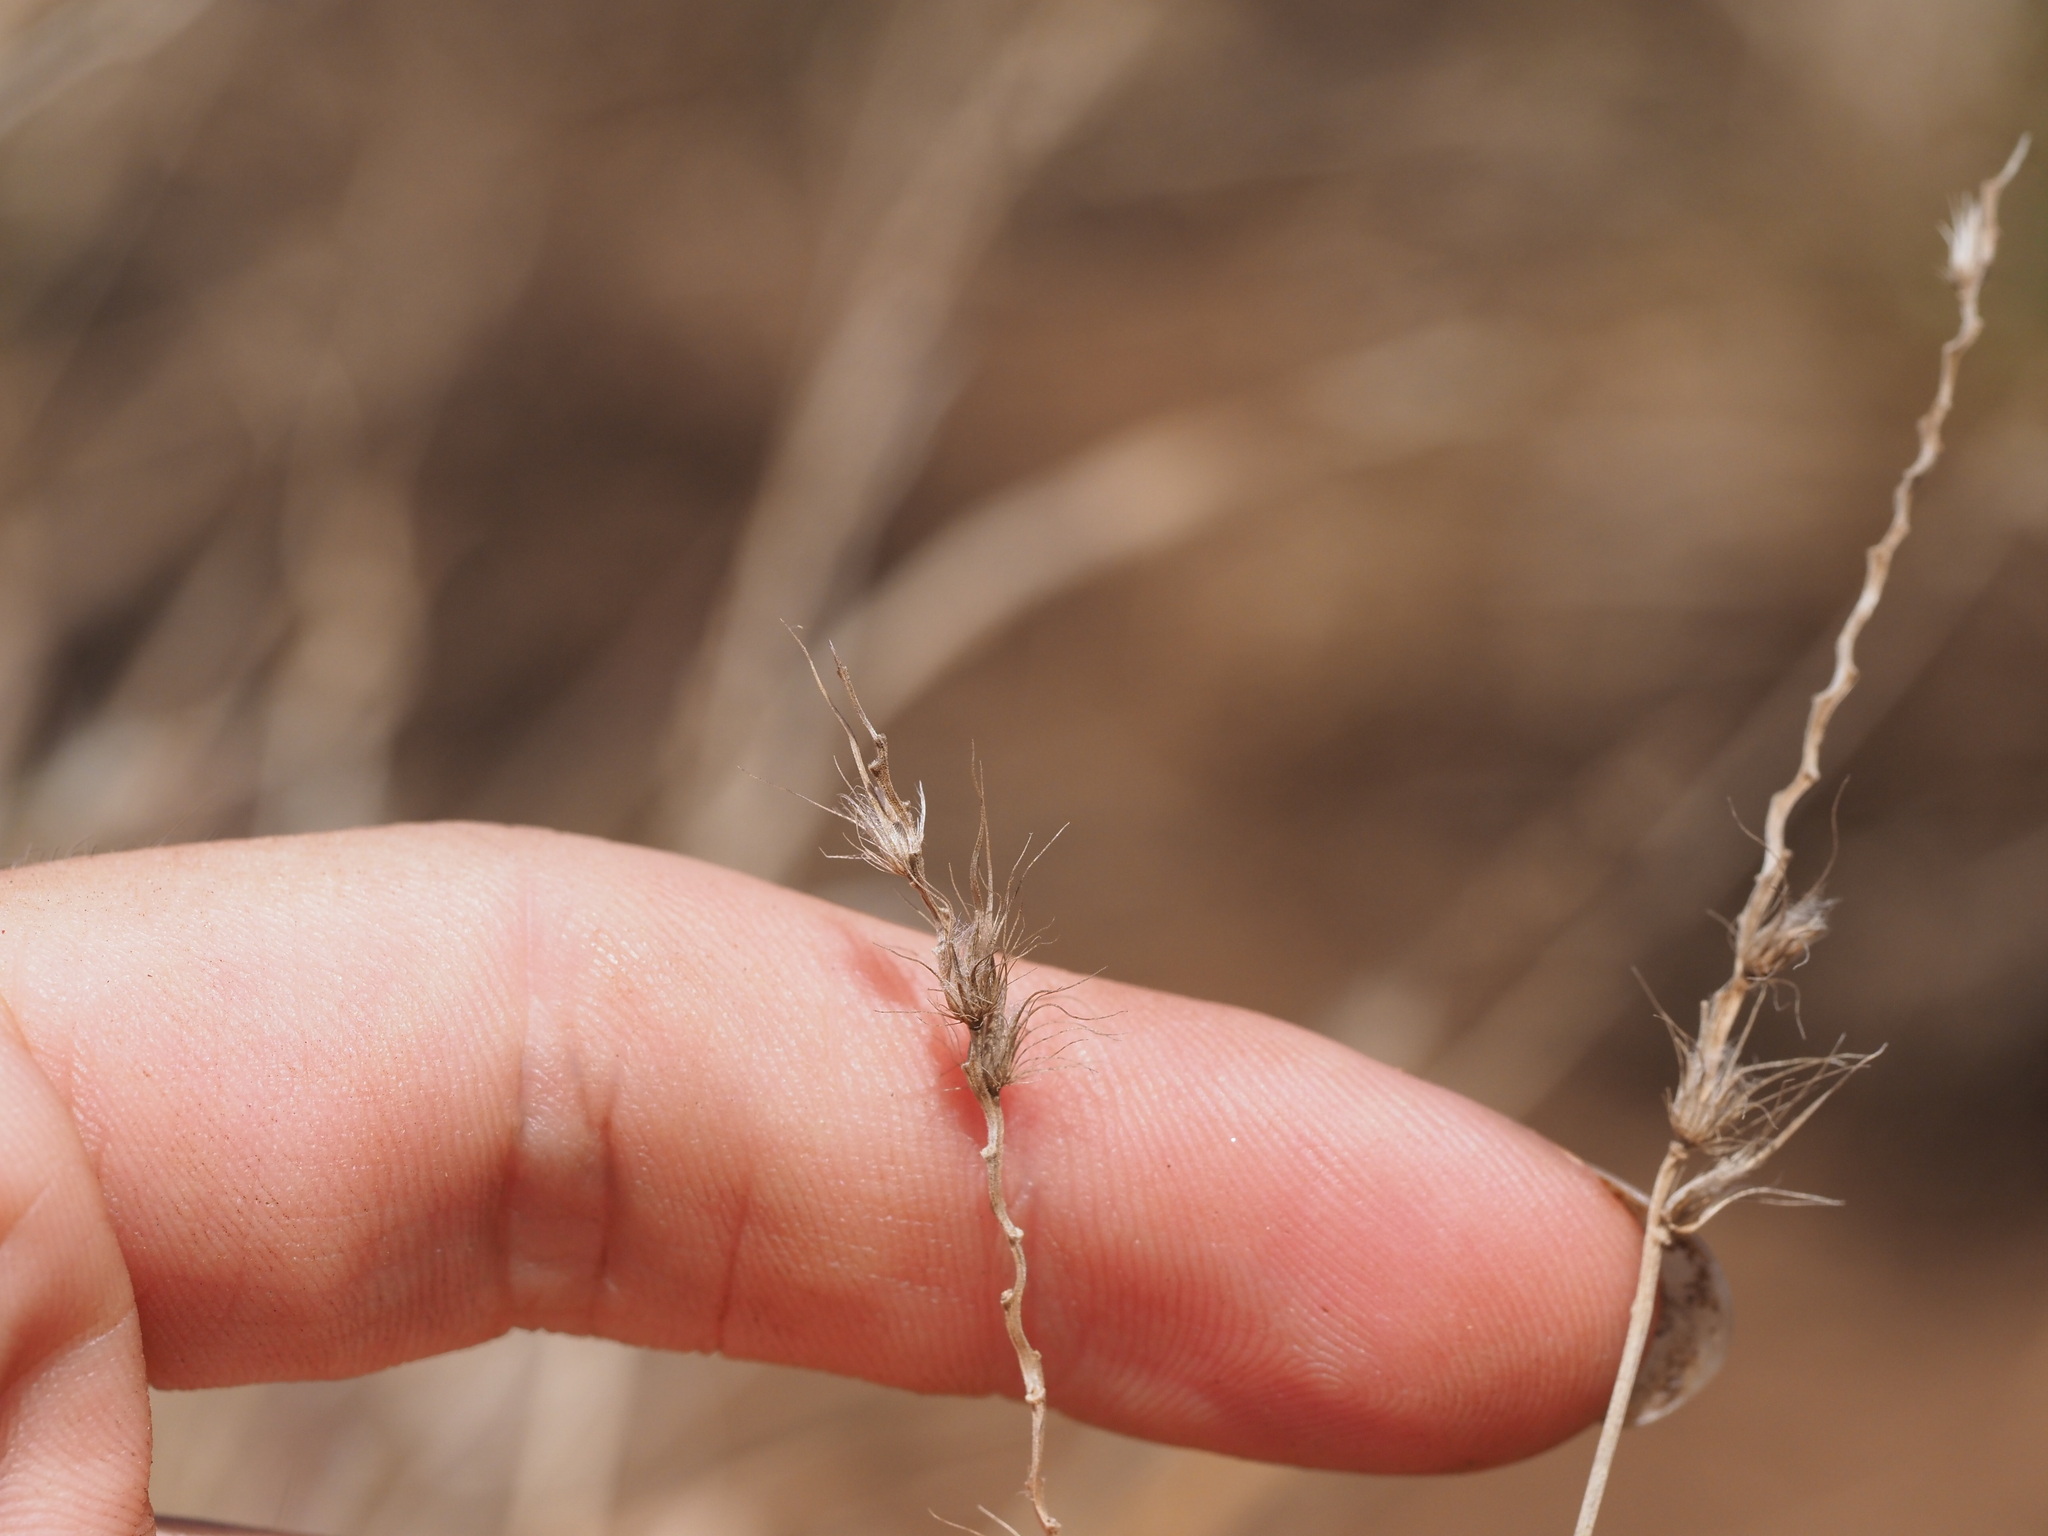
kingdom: Plantae
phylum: Tracheophyta
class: Liliopsida
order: Poales
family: Poaceae
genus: Cenchrus
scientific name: Cenchrus ciliaris
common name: Buffelgrass
